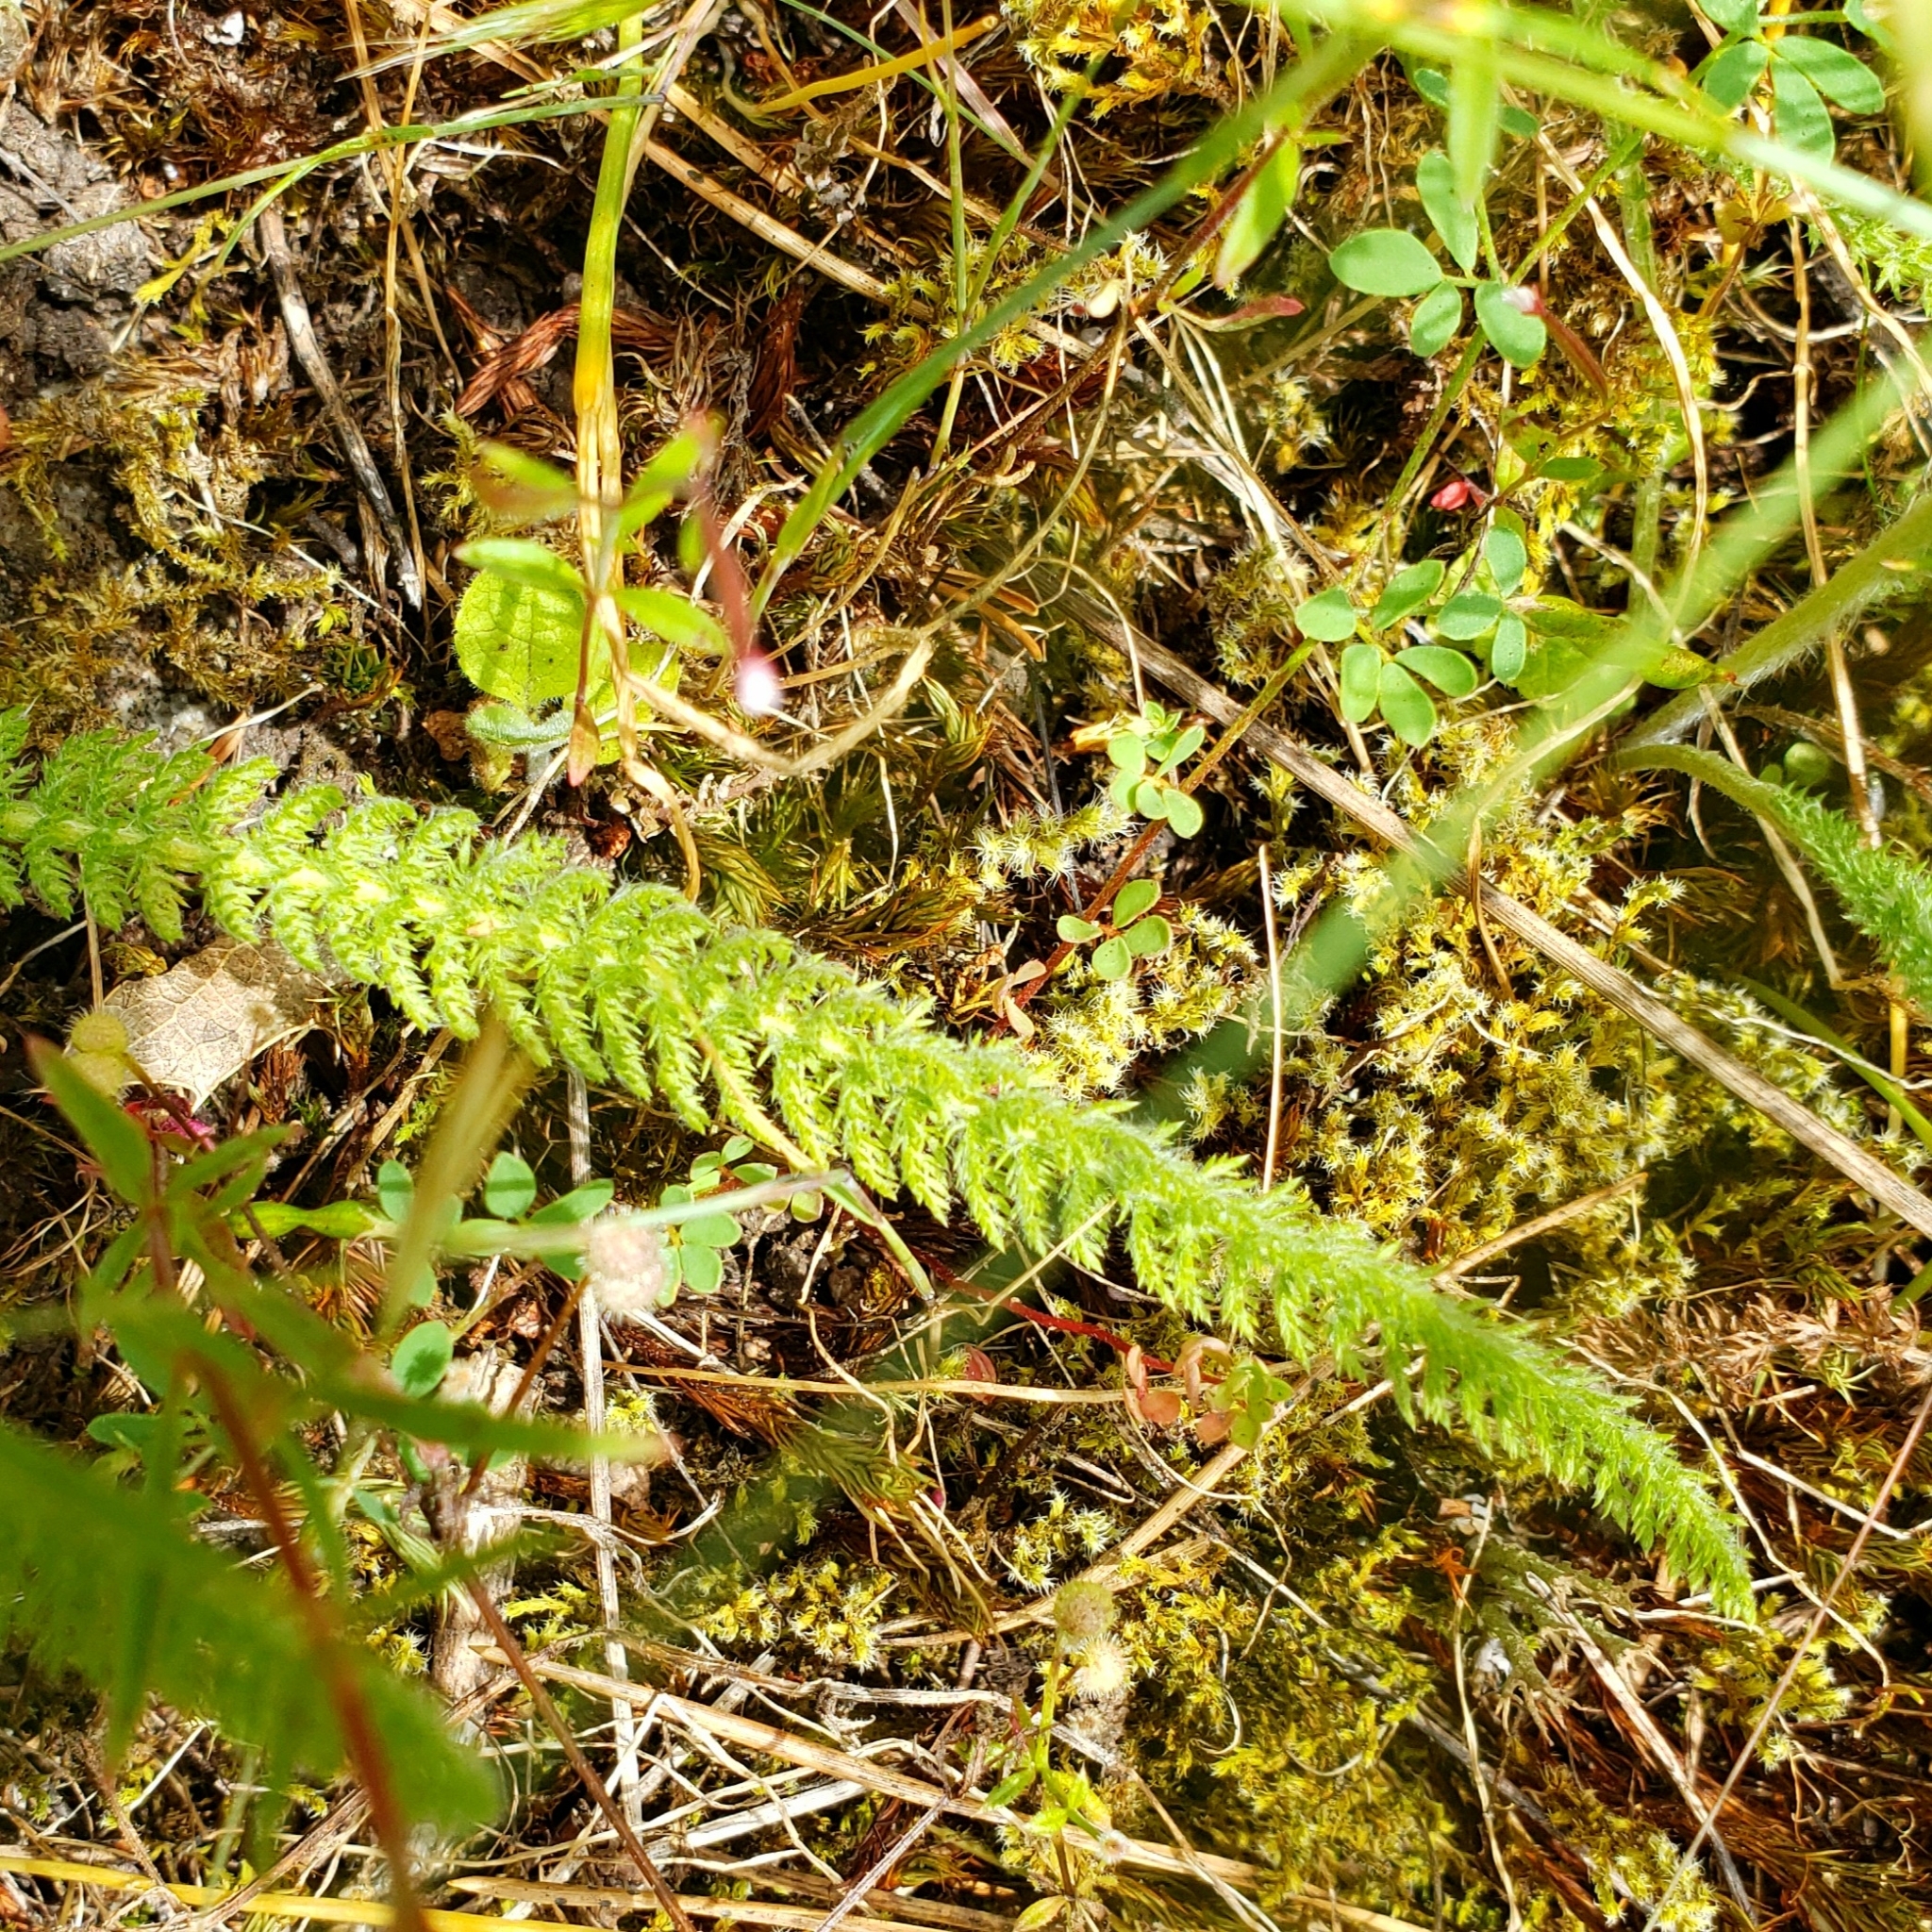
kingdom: Plantae
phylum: Tracheophyta
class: Magnoliopsida
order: Asterales
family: Asteraceae
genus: Achillea
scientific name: Achillea millefolium
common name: Yarrow
